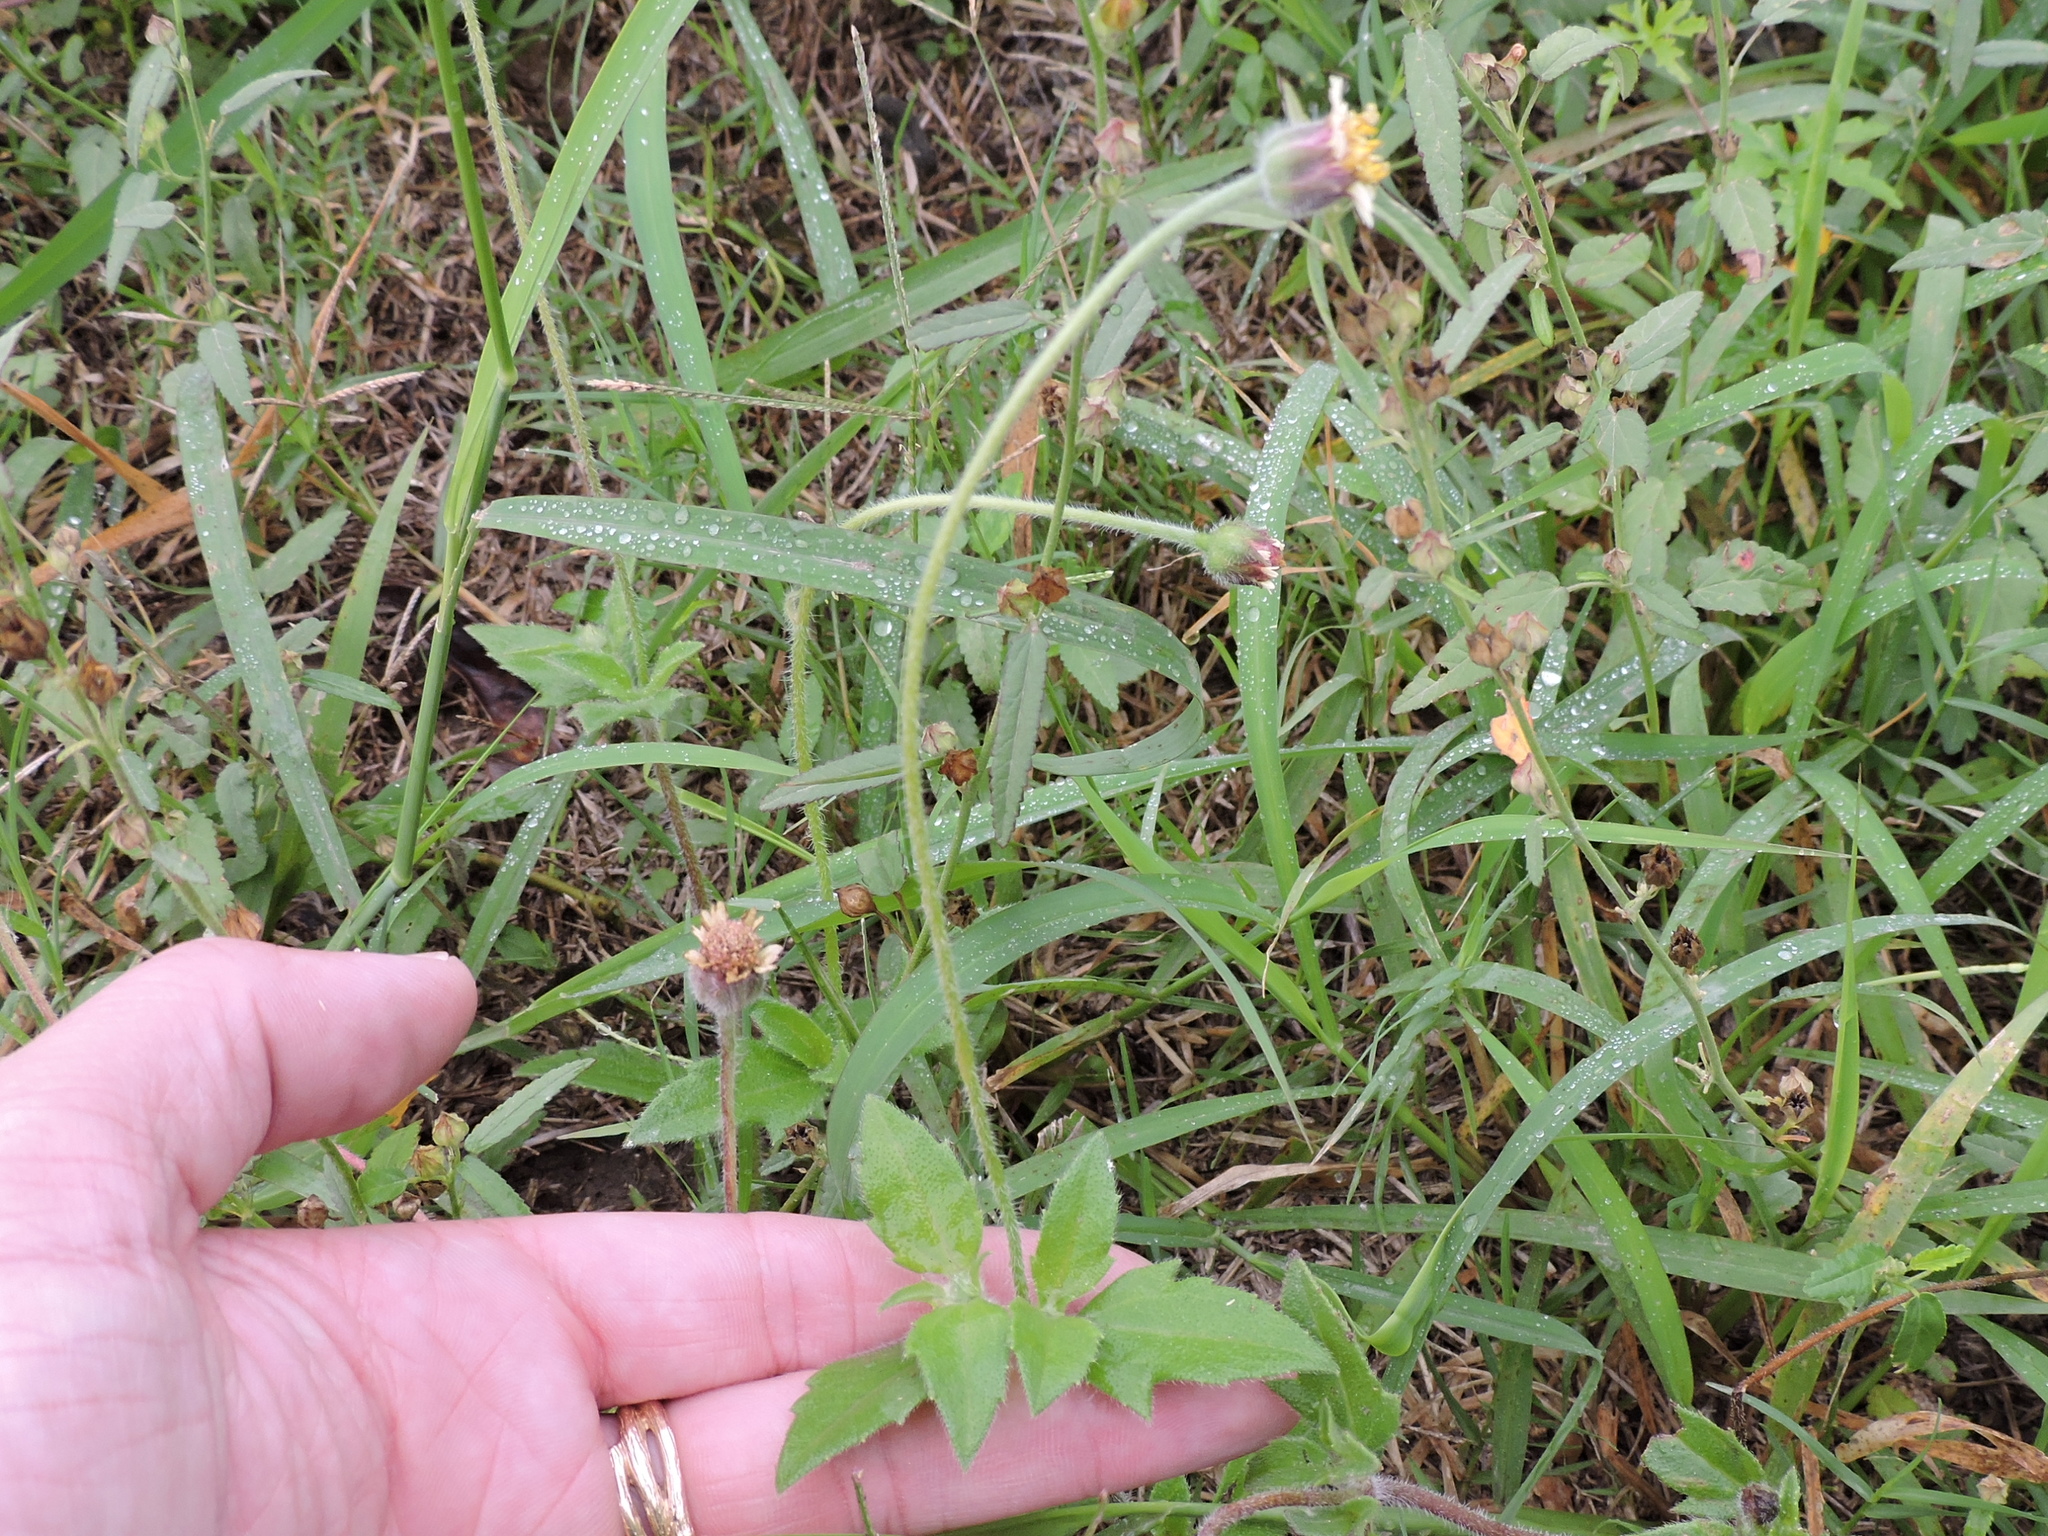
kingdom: Plantae
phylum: Tracheophyta
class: Magnoliopsida
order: Asterales
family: Asteraceae
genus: Tridax
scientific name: Tridax procumbens
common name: Coatbuttons
